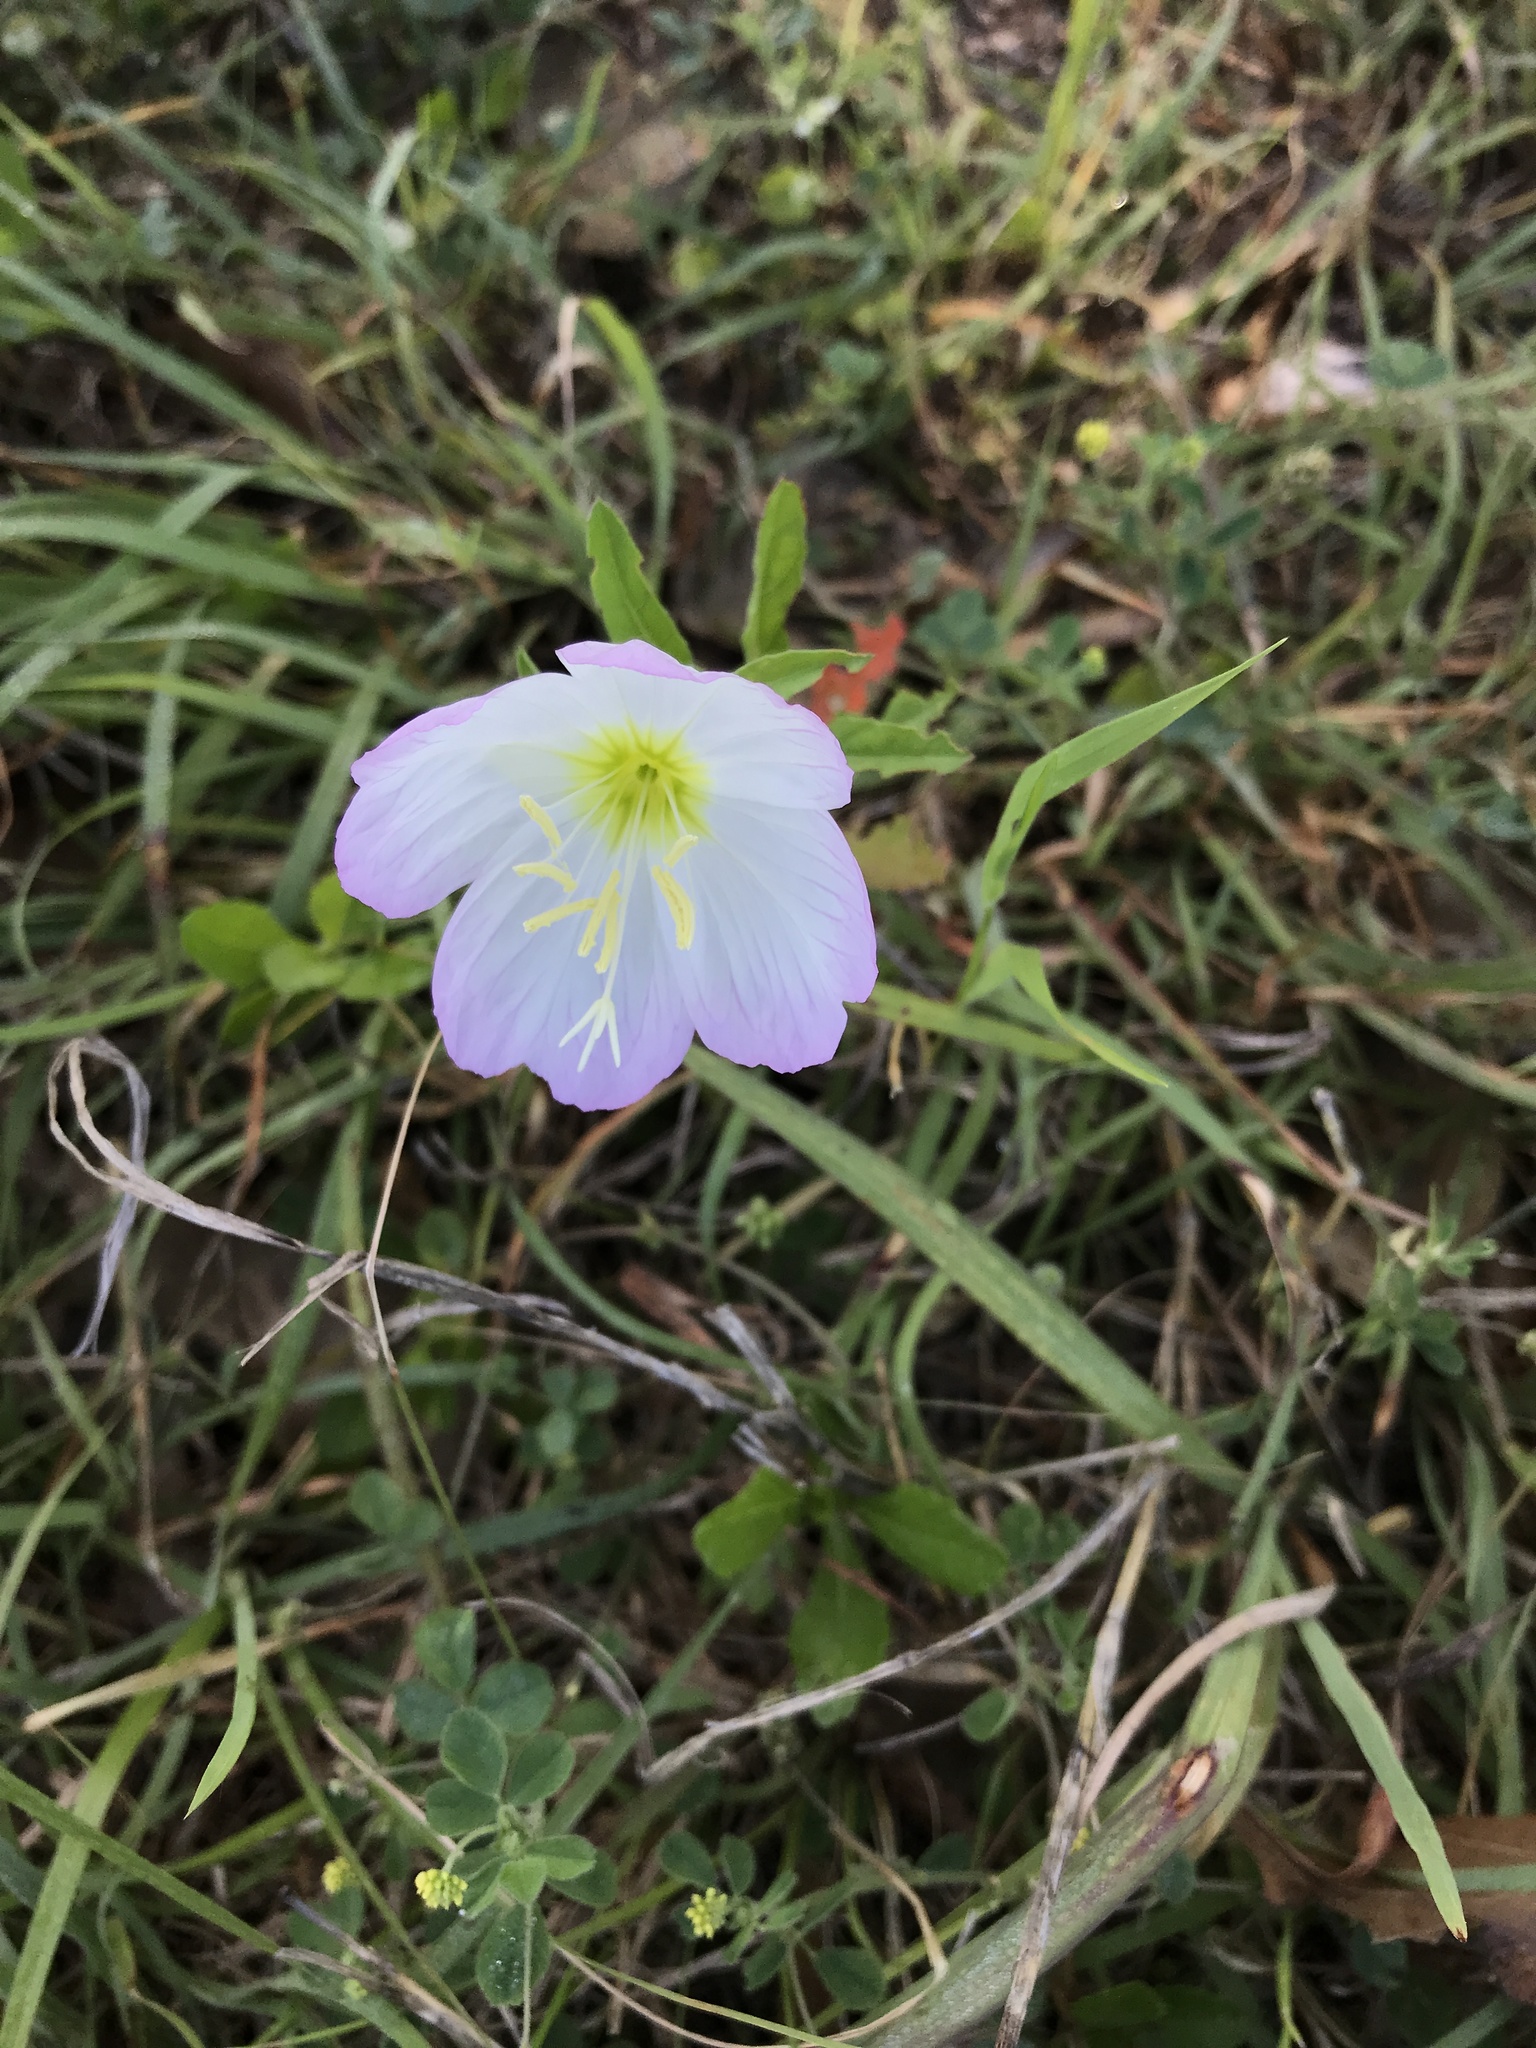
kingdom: Plantae
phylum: Tracheophyta
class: Magnoliopsida
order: Myrtales
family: Onagraceae
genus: Oenothera
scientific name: Oenothera speciosa
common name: White evening-primrose
